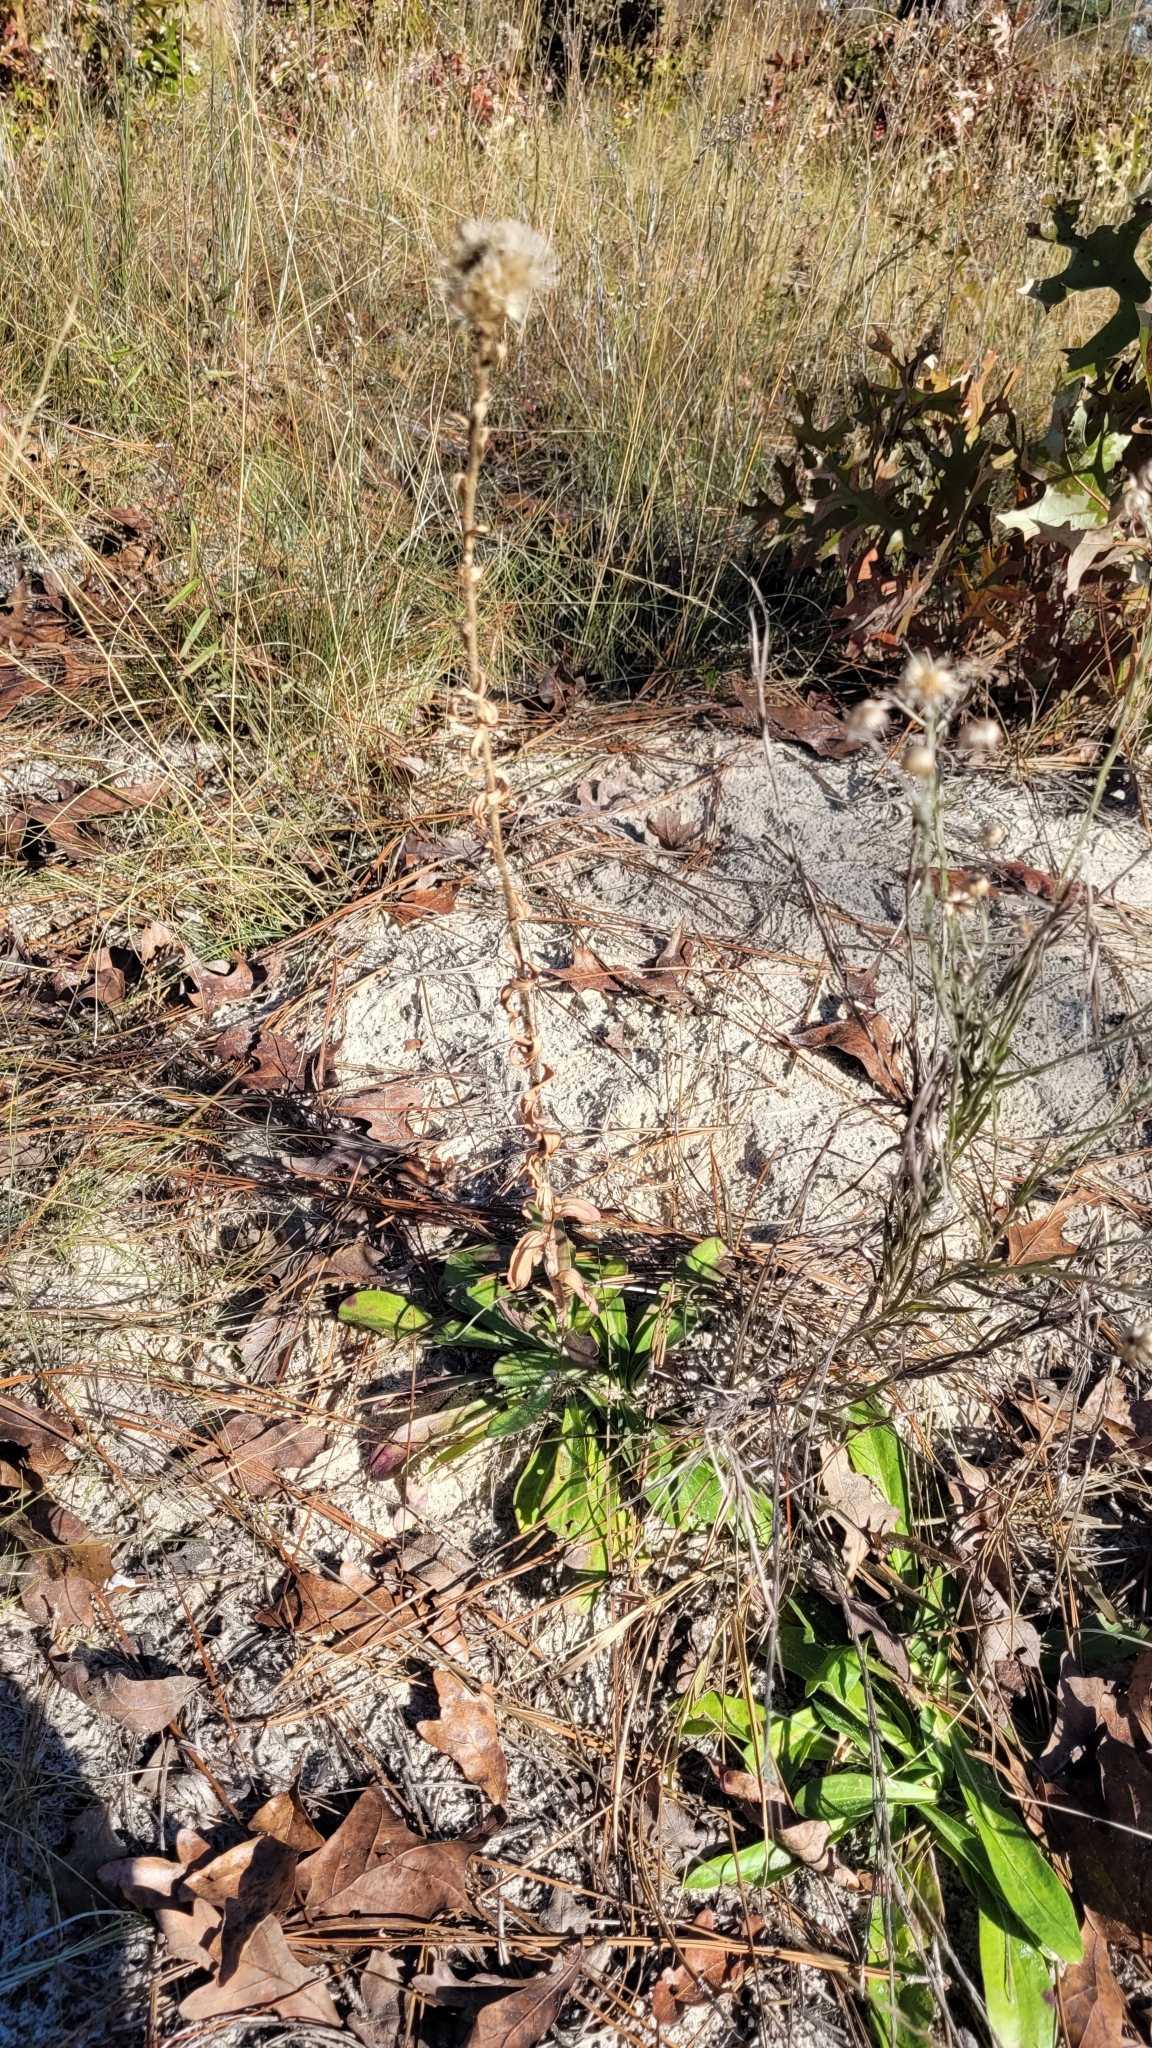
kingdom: Plantae
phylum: Tracheophyta
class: Magnoliopsida
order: Asterales
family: Asteraceae
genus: Carphephorus
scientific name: Carphephorus corymbosus
